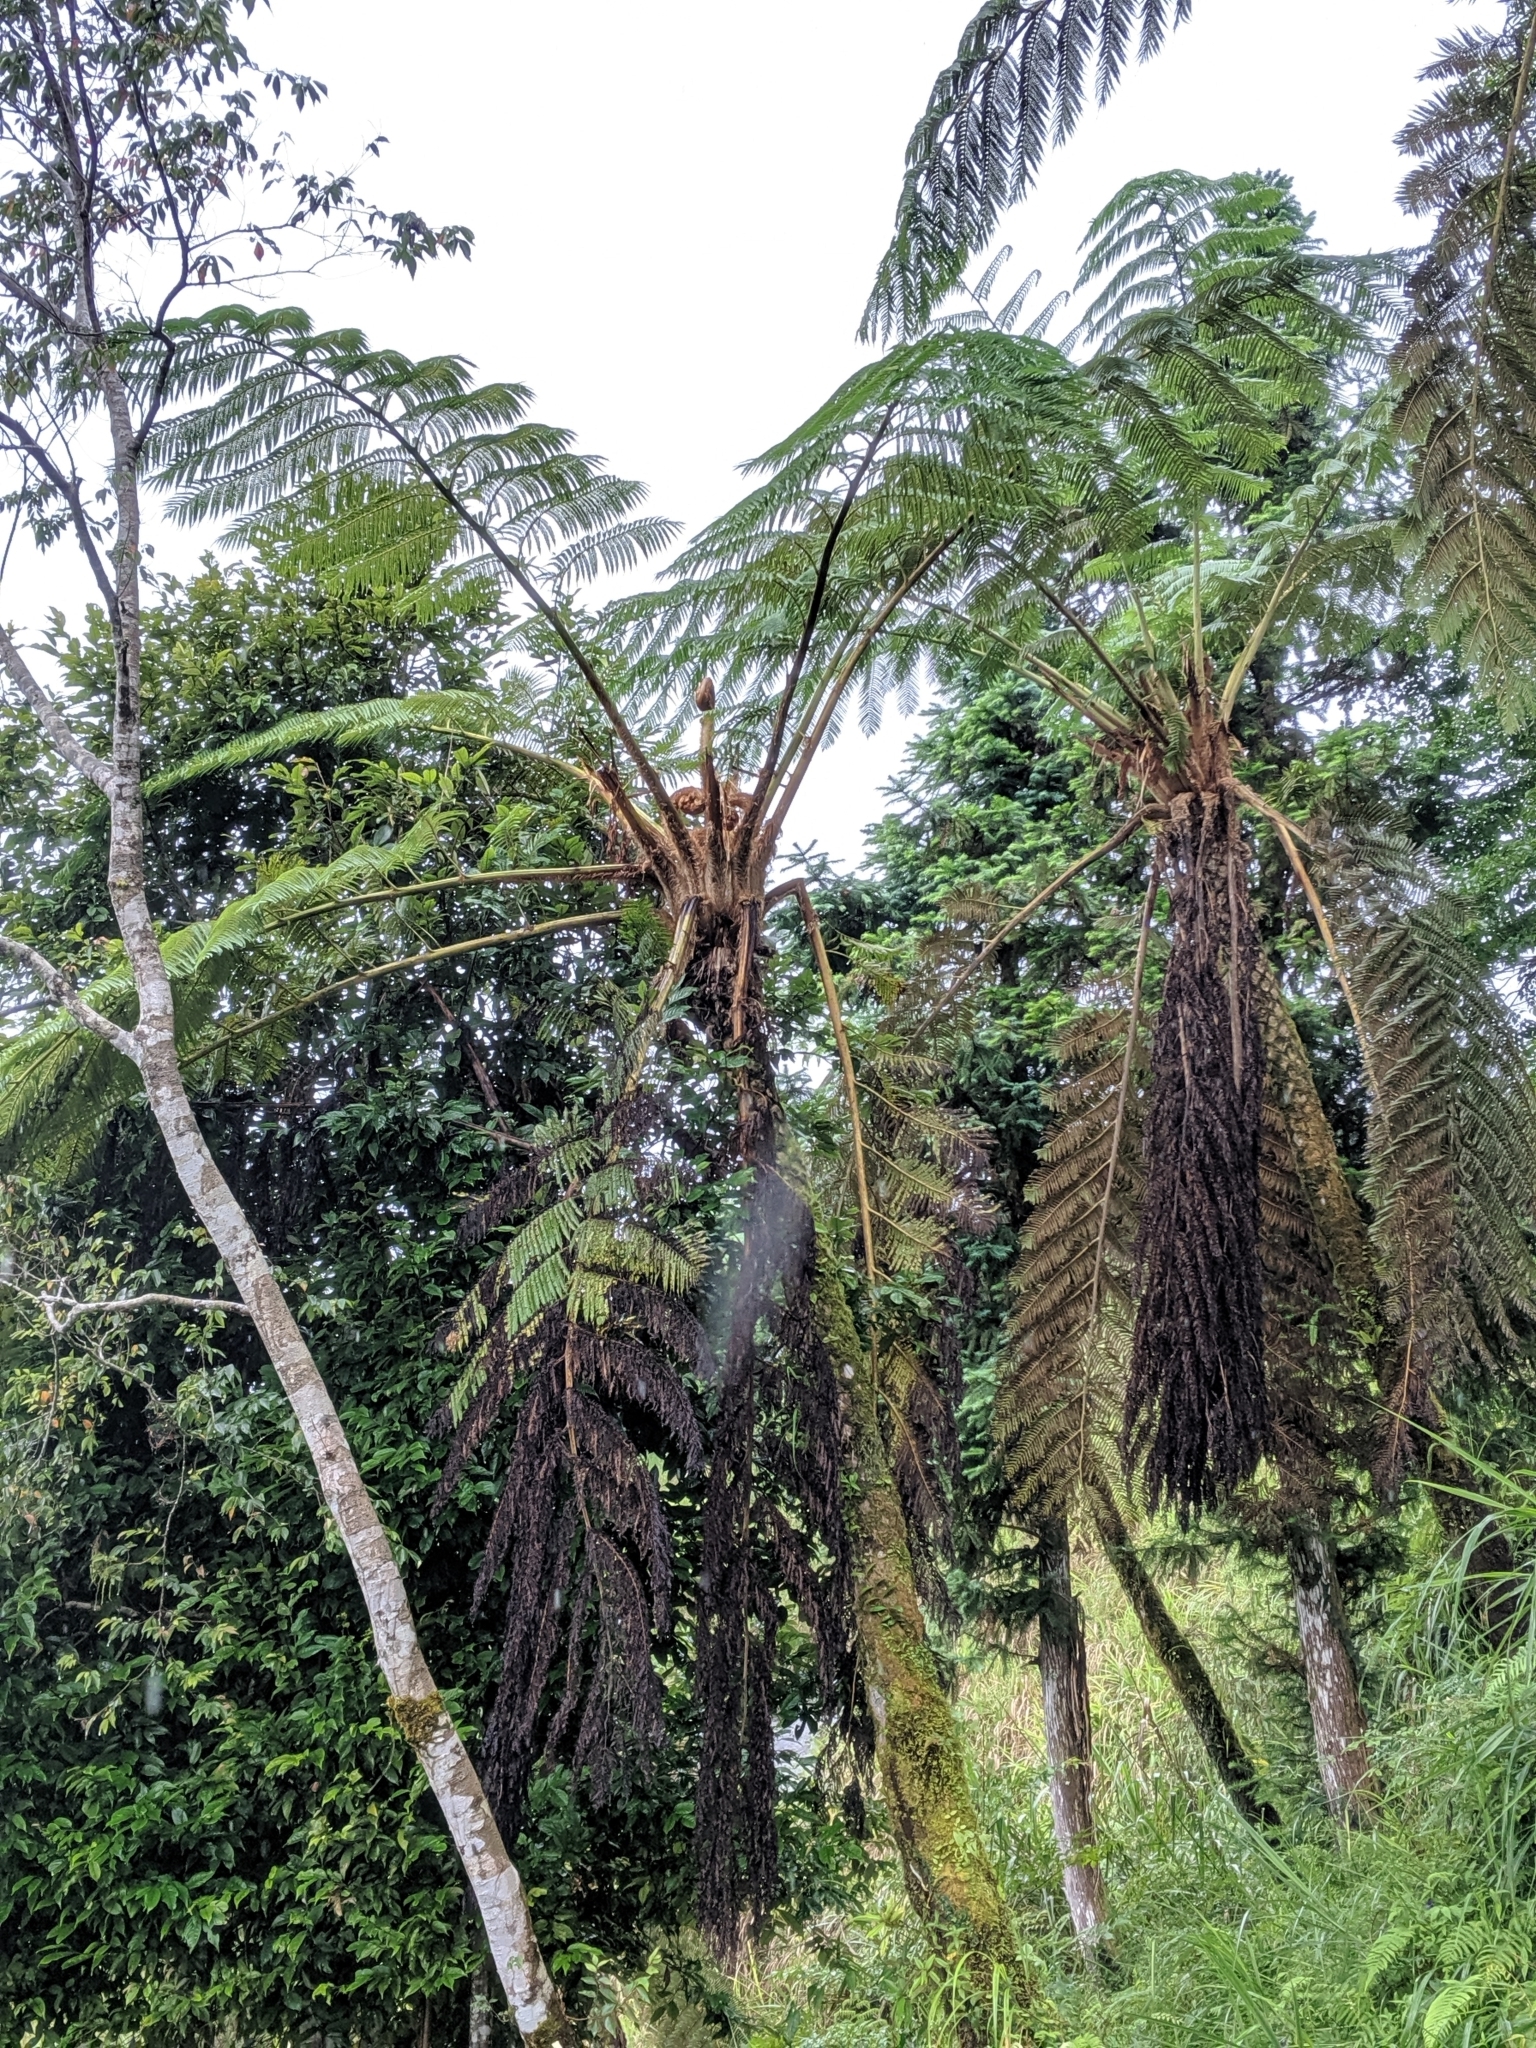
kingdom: Plantae
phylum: Tracheophyta
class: Polypodiopsida
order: Cyatheales
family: Cyatheaceae
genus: Alsophila
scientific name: Alsophila lepifera
